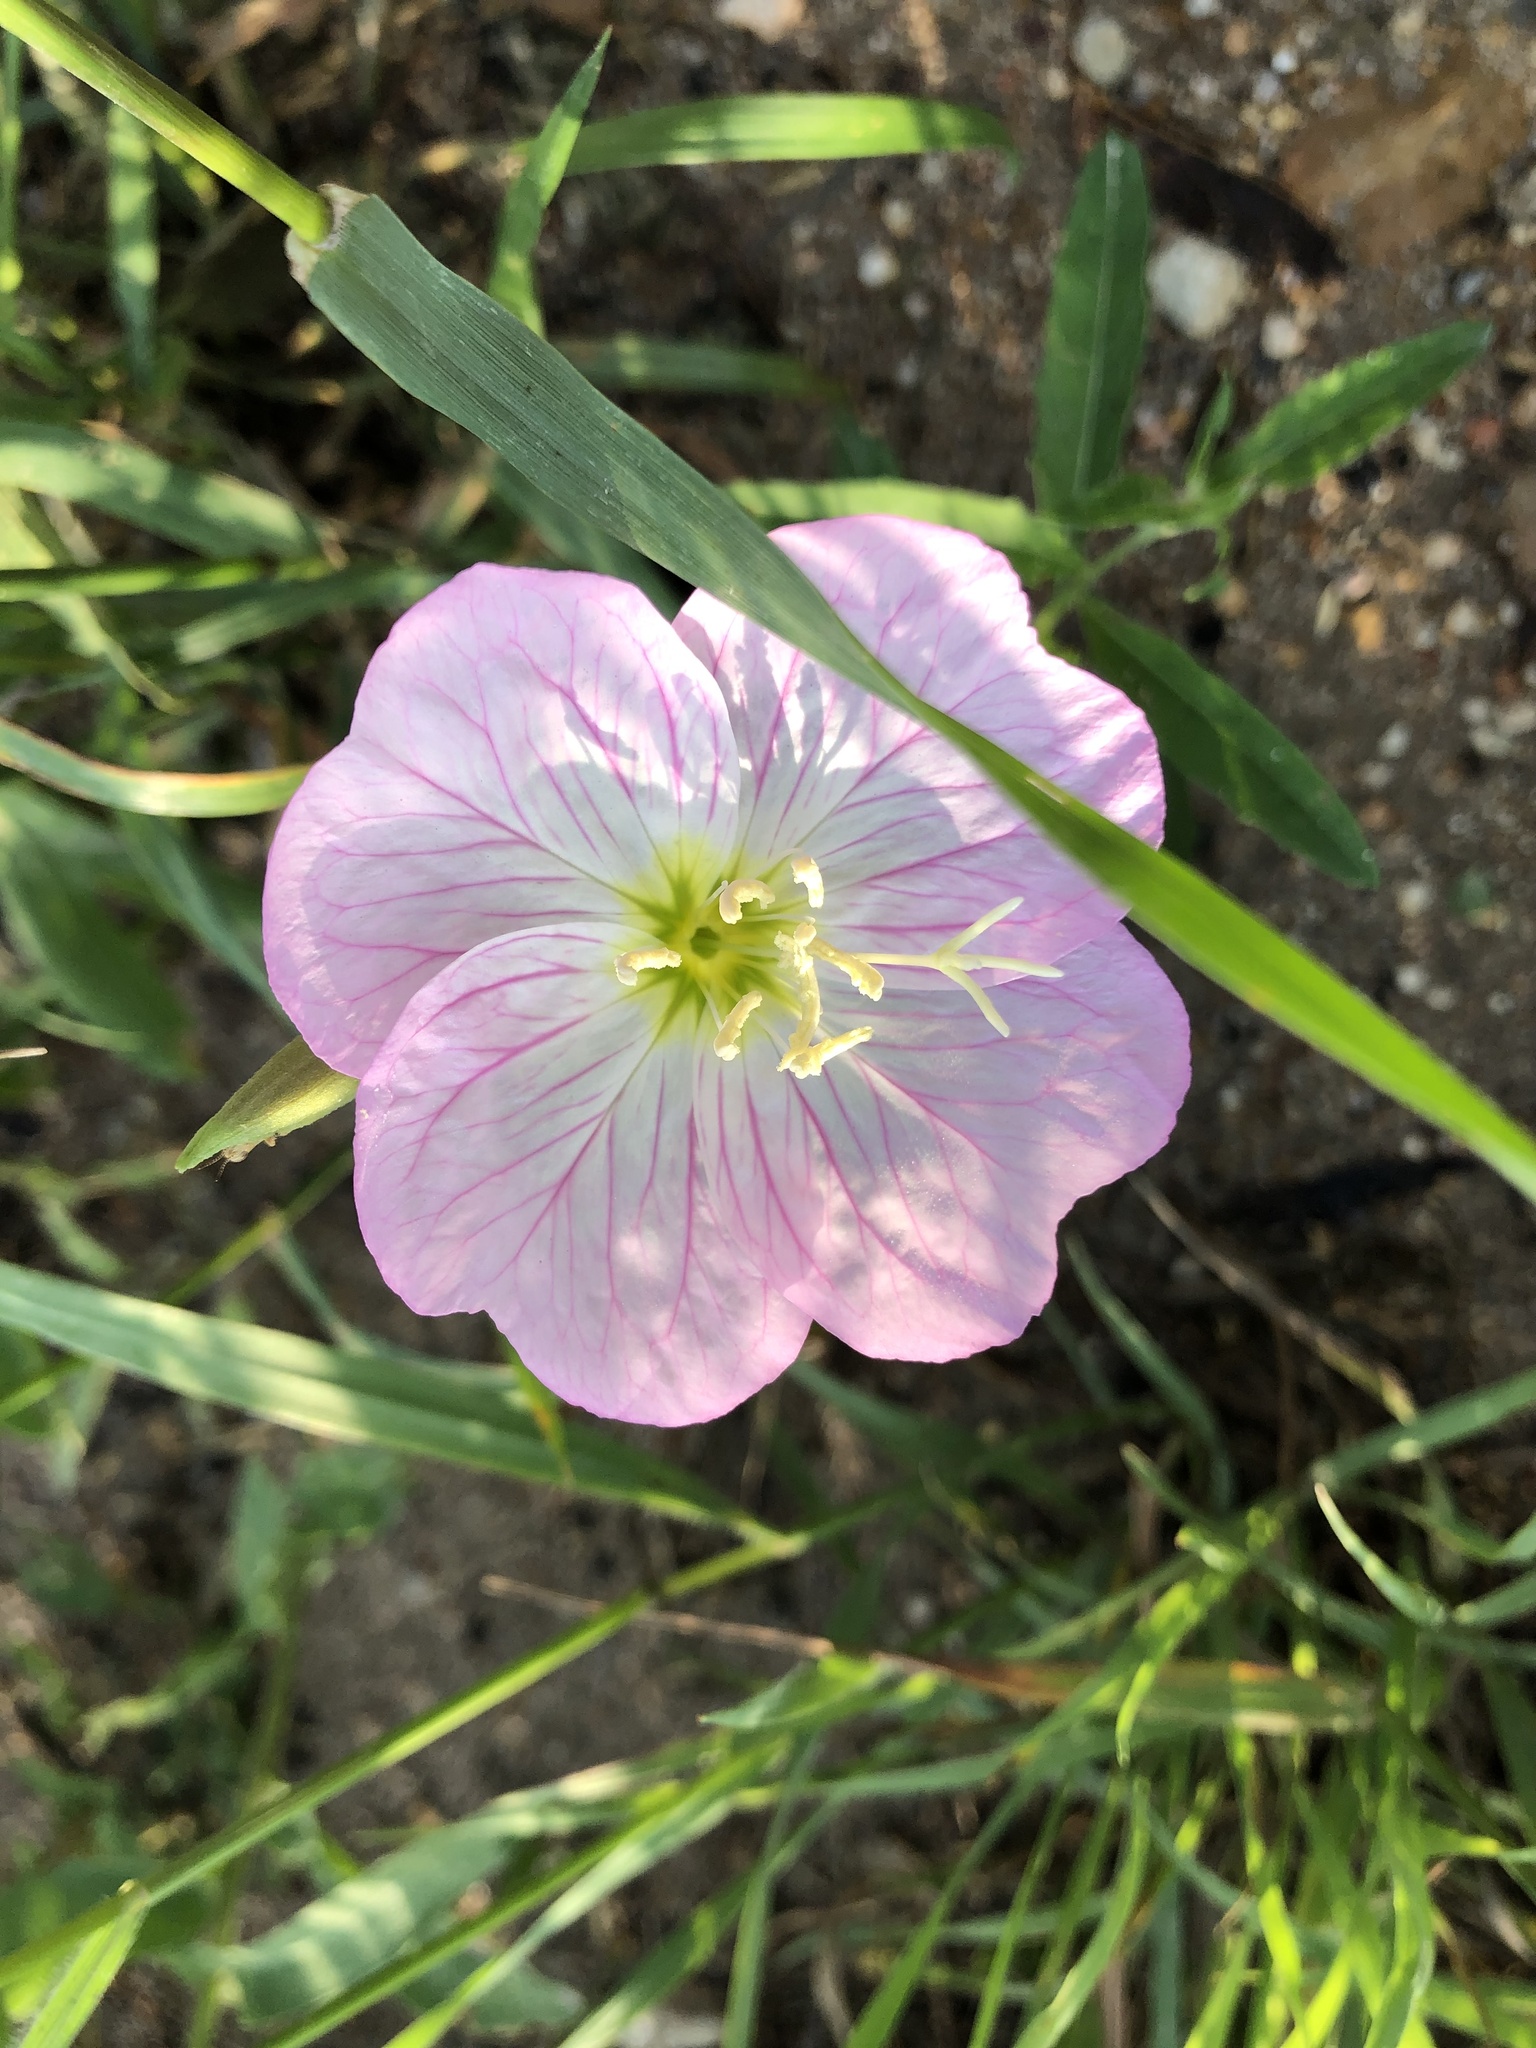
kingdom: Plantae
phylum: Tracheophyta
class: Magnoliopsida
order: Myrtales
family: Onagraceae
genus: Oenothera
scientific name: Oenothera speciosa
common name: White evening-primrose
